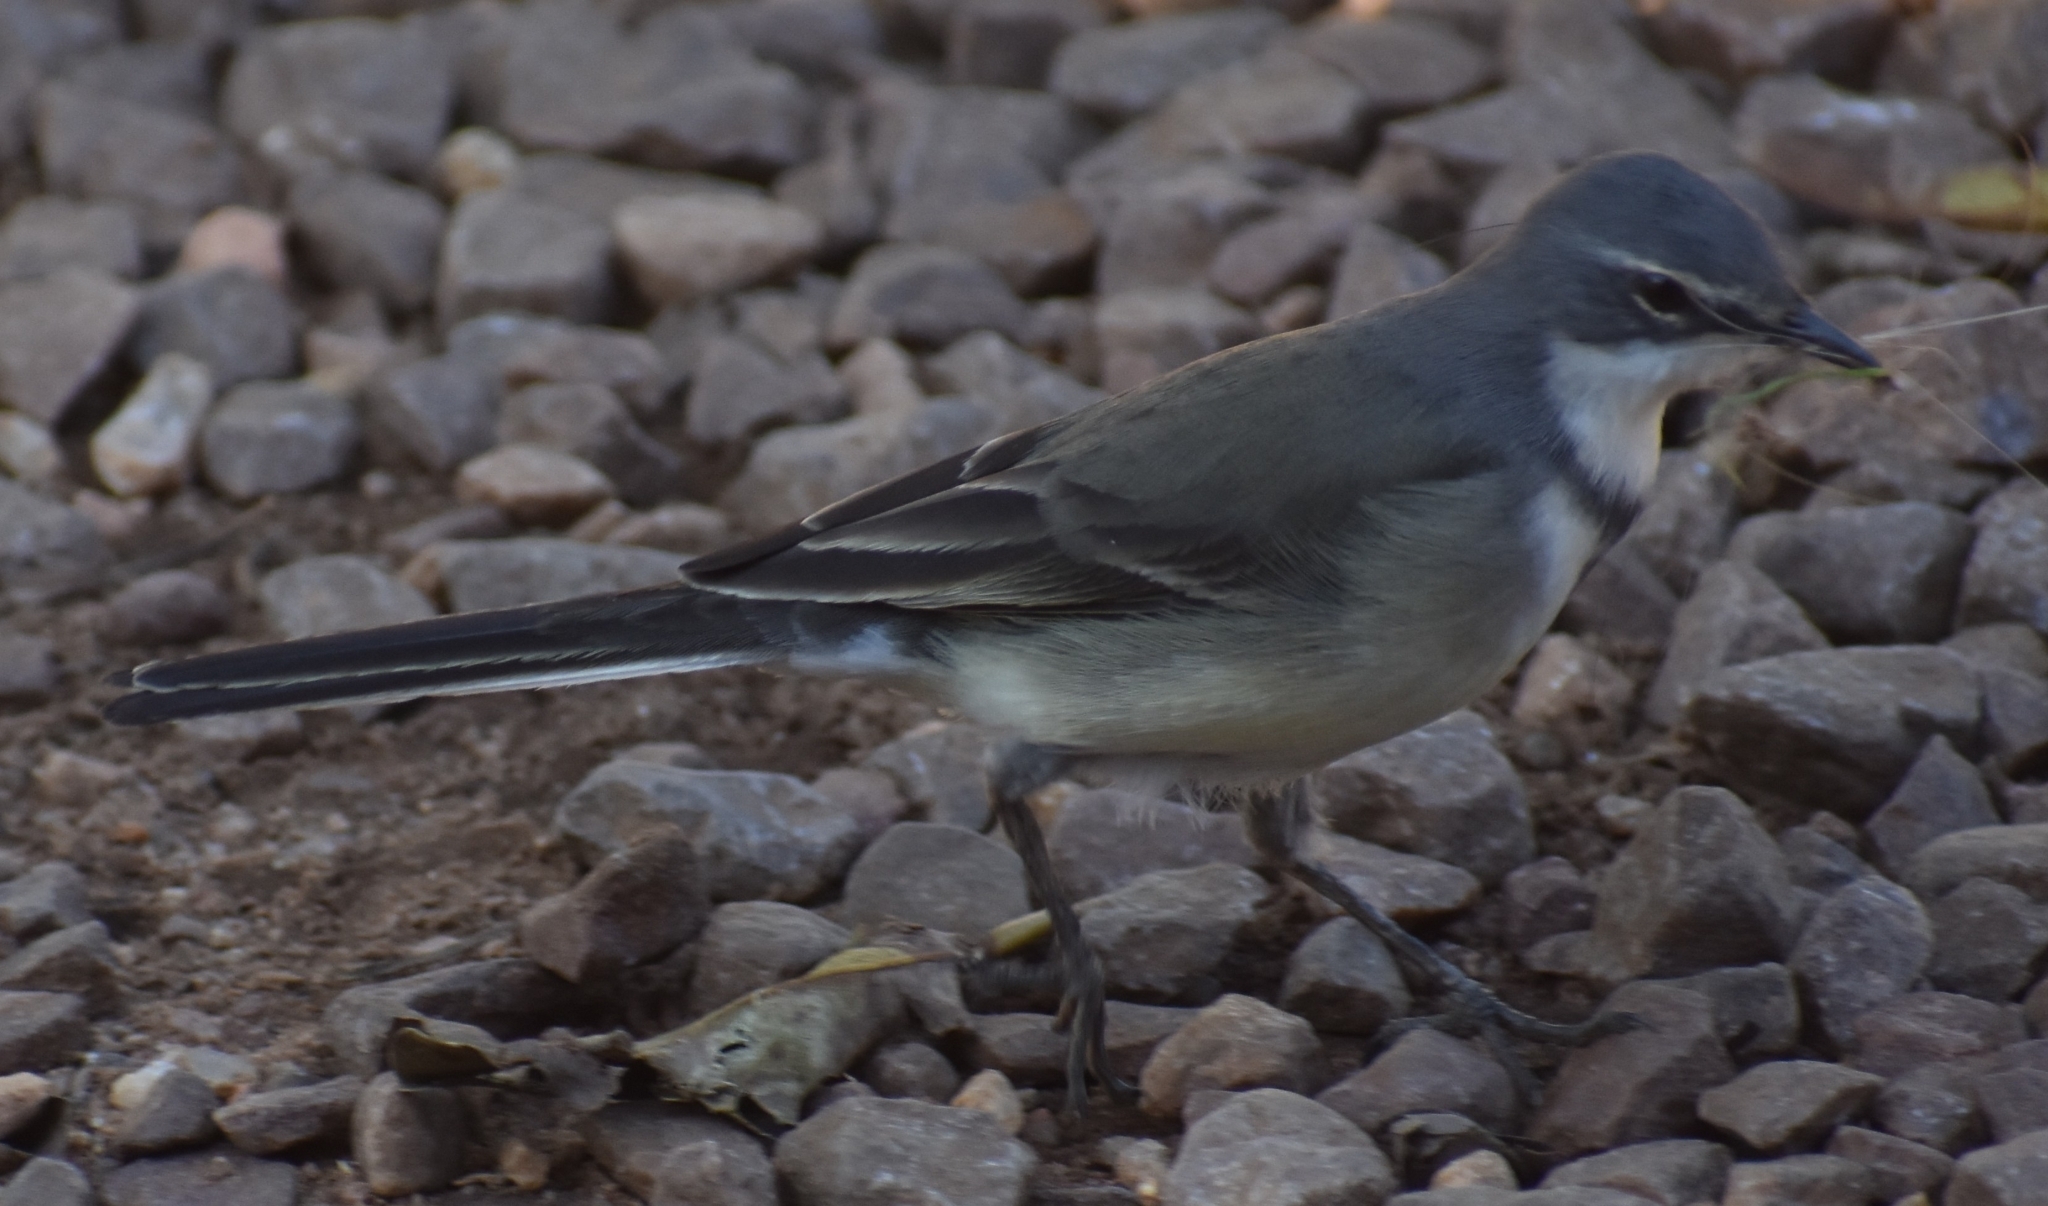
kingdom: Animalia
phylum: Chordata
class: Aves
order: Passeriformes
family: Motacillidae
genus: Motacilla
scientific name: Motacilla capensis
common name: Cape wagtail
